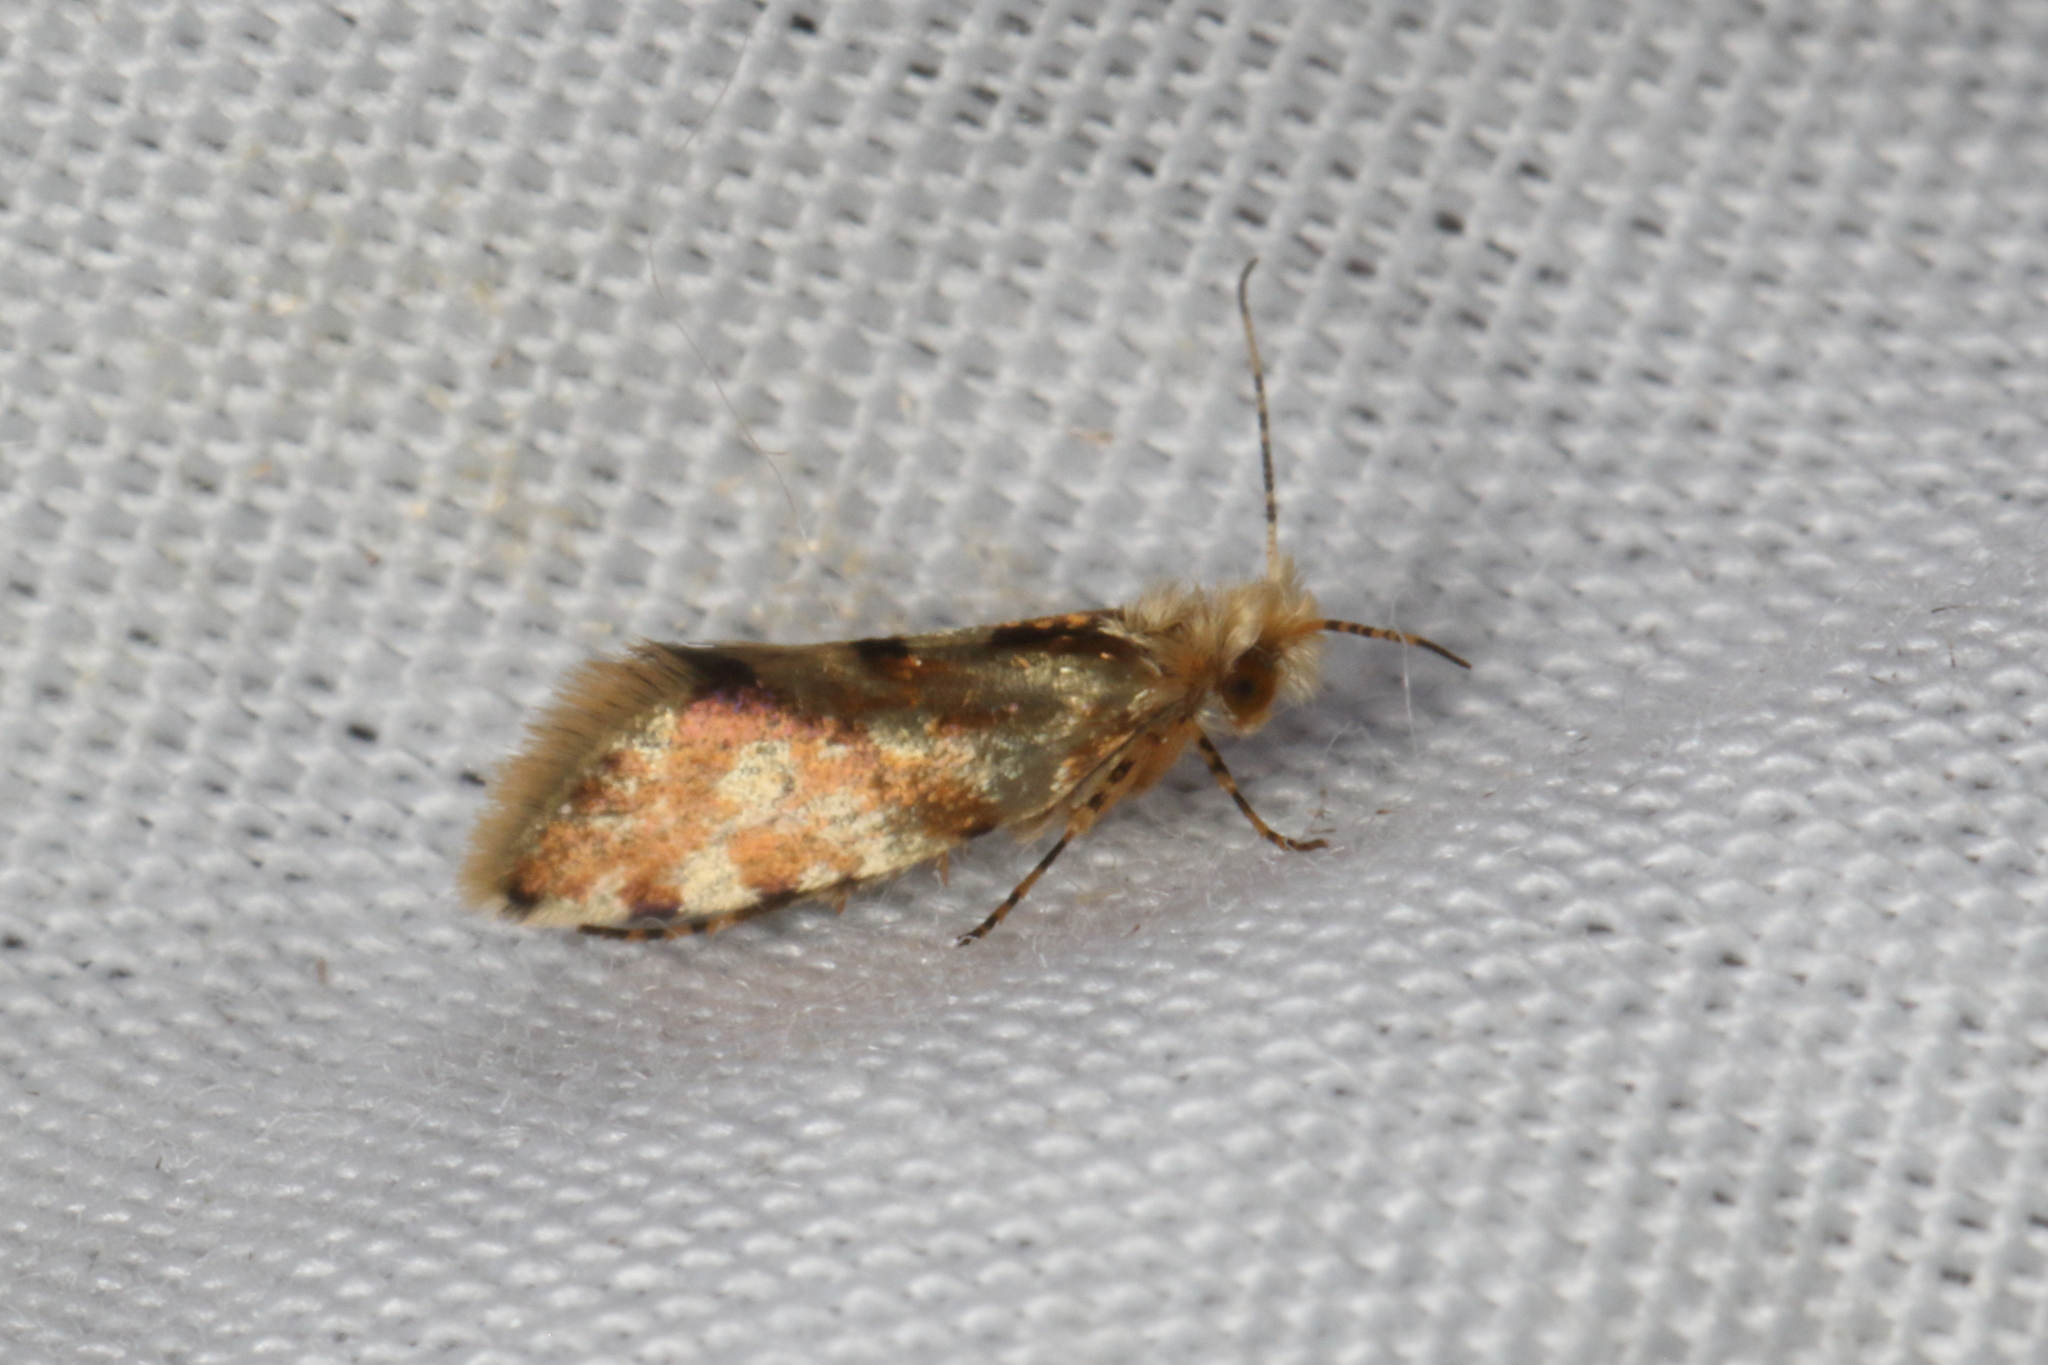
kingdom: Animalia
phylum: Arthropoda
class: Insecta
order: Lepidoptera
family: Micropterigidae
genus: Sabatinca
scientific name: Sabatinca chalcophanes
